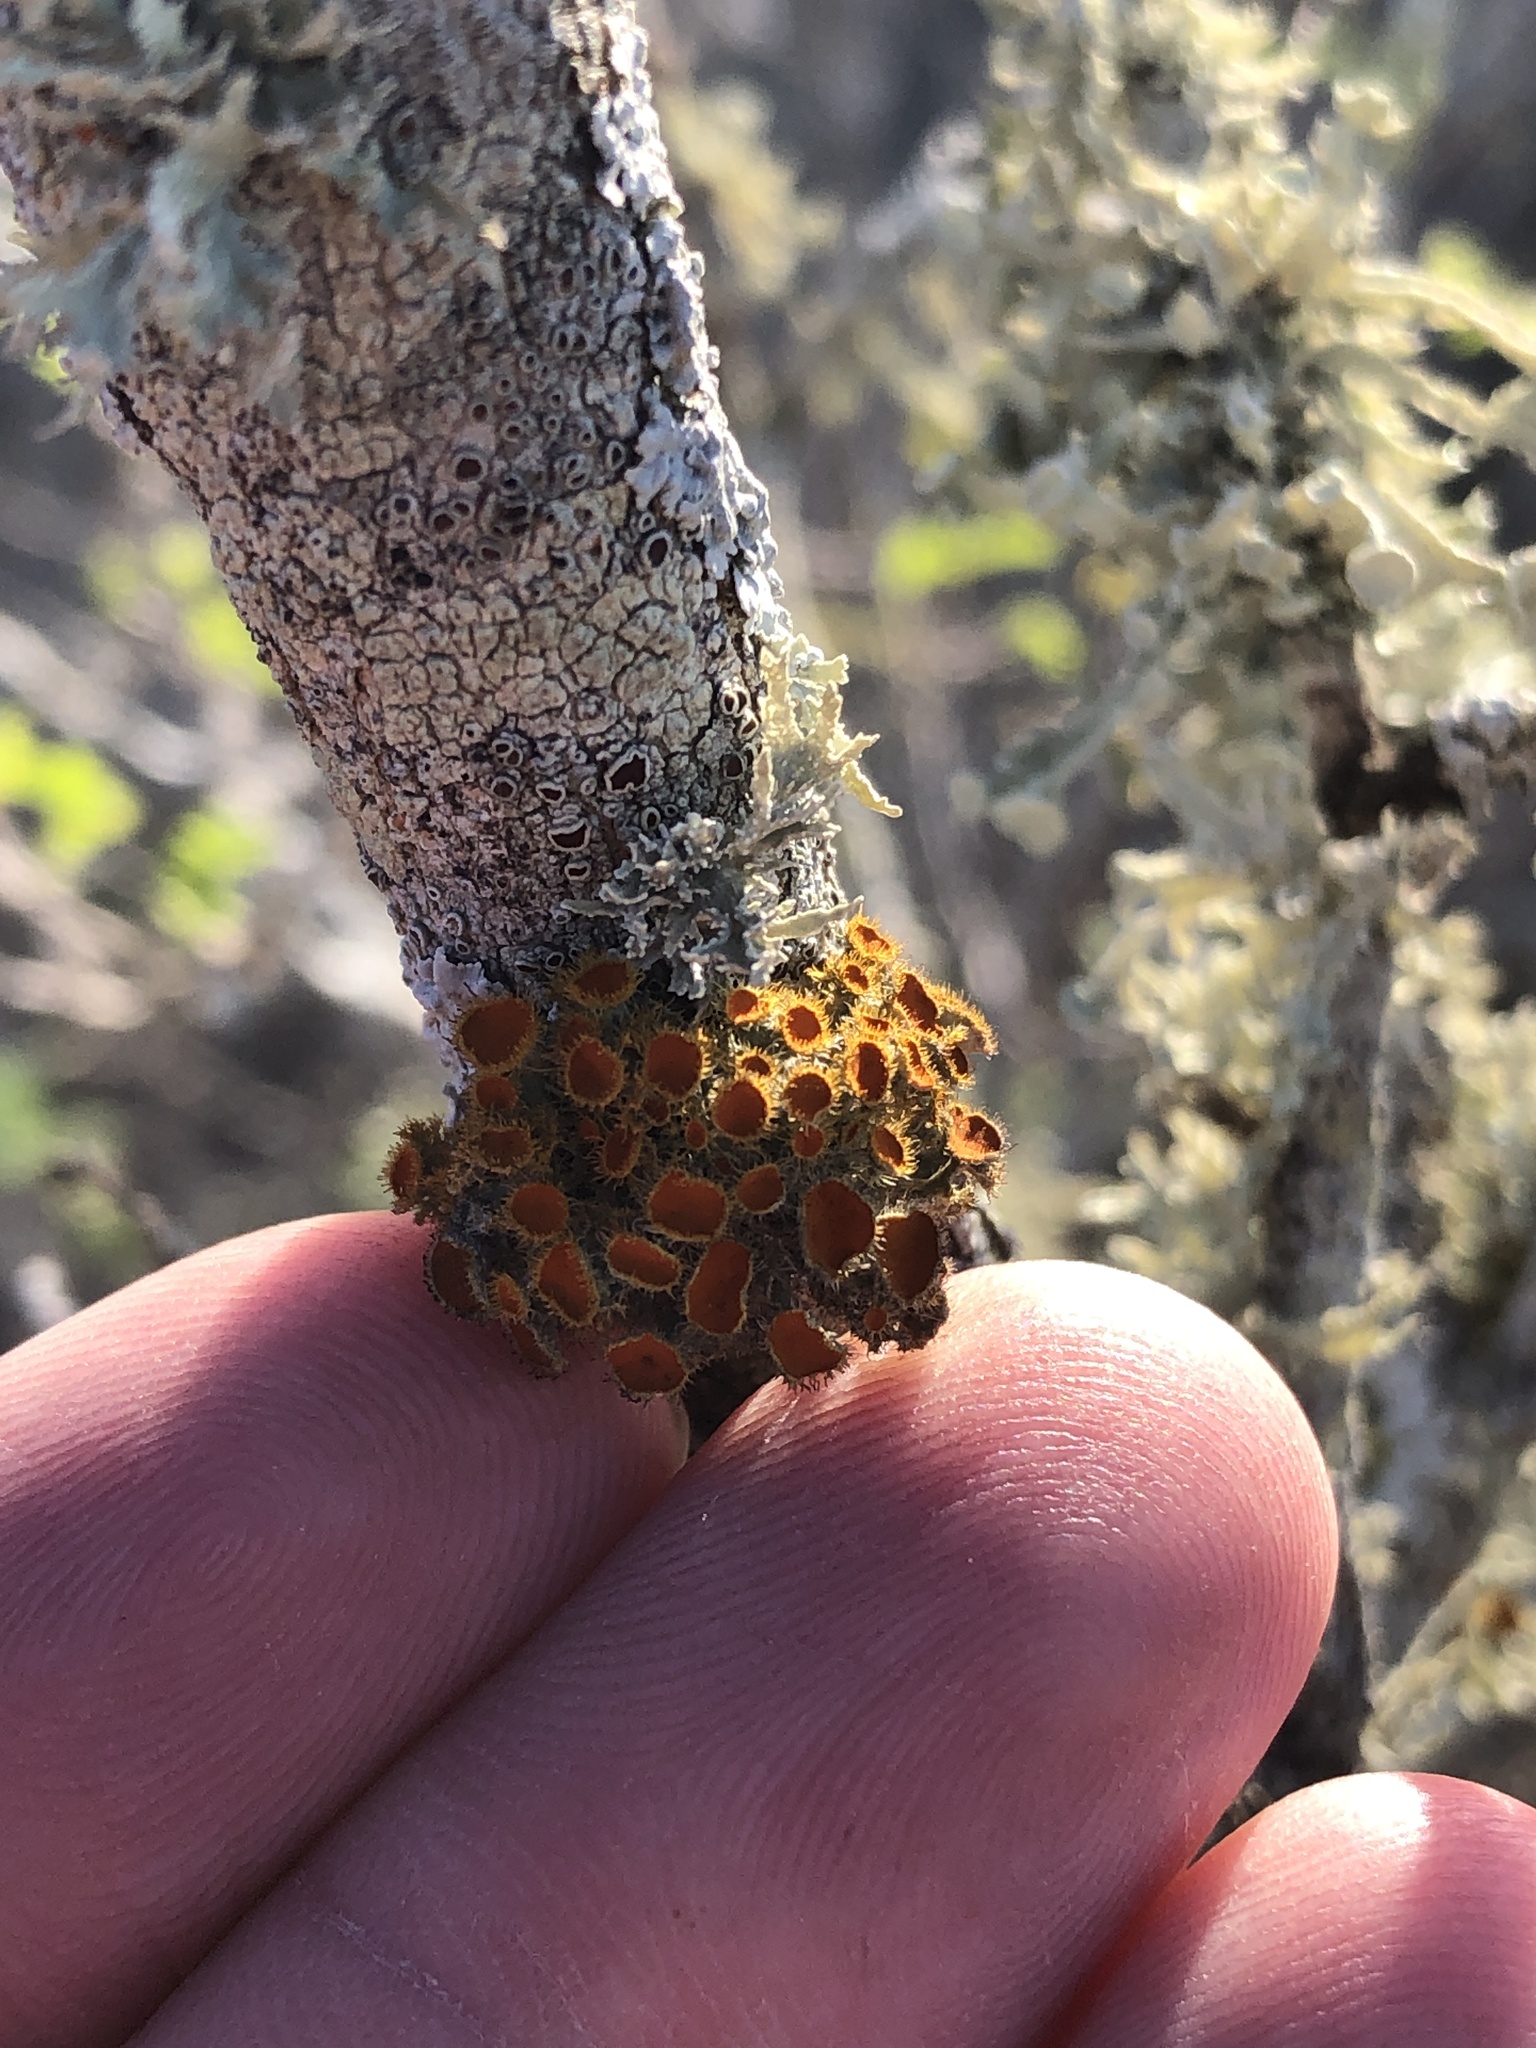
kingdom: Fungi
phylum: Ascomycota
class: Lecanoromycetes
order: Teloschistales
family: Teloschistaceae
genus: Niorma
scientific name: Niorma chrysophthalma
